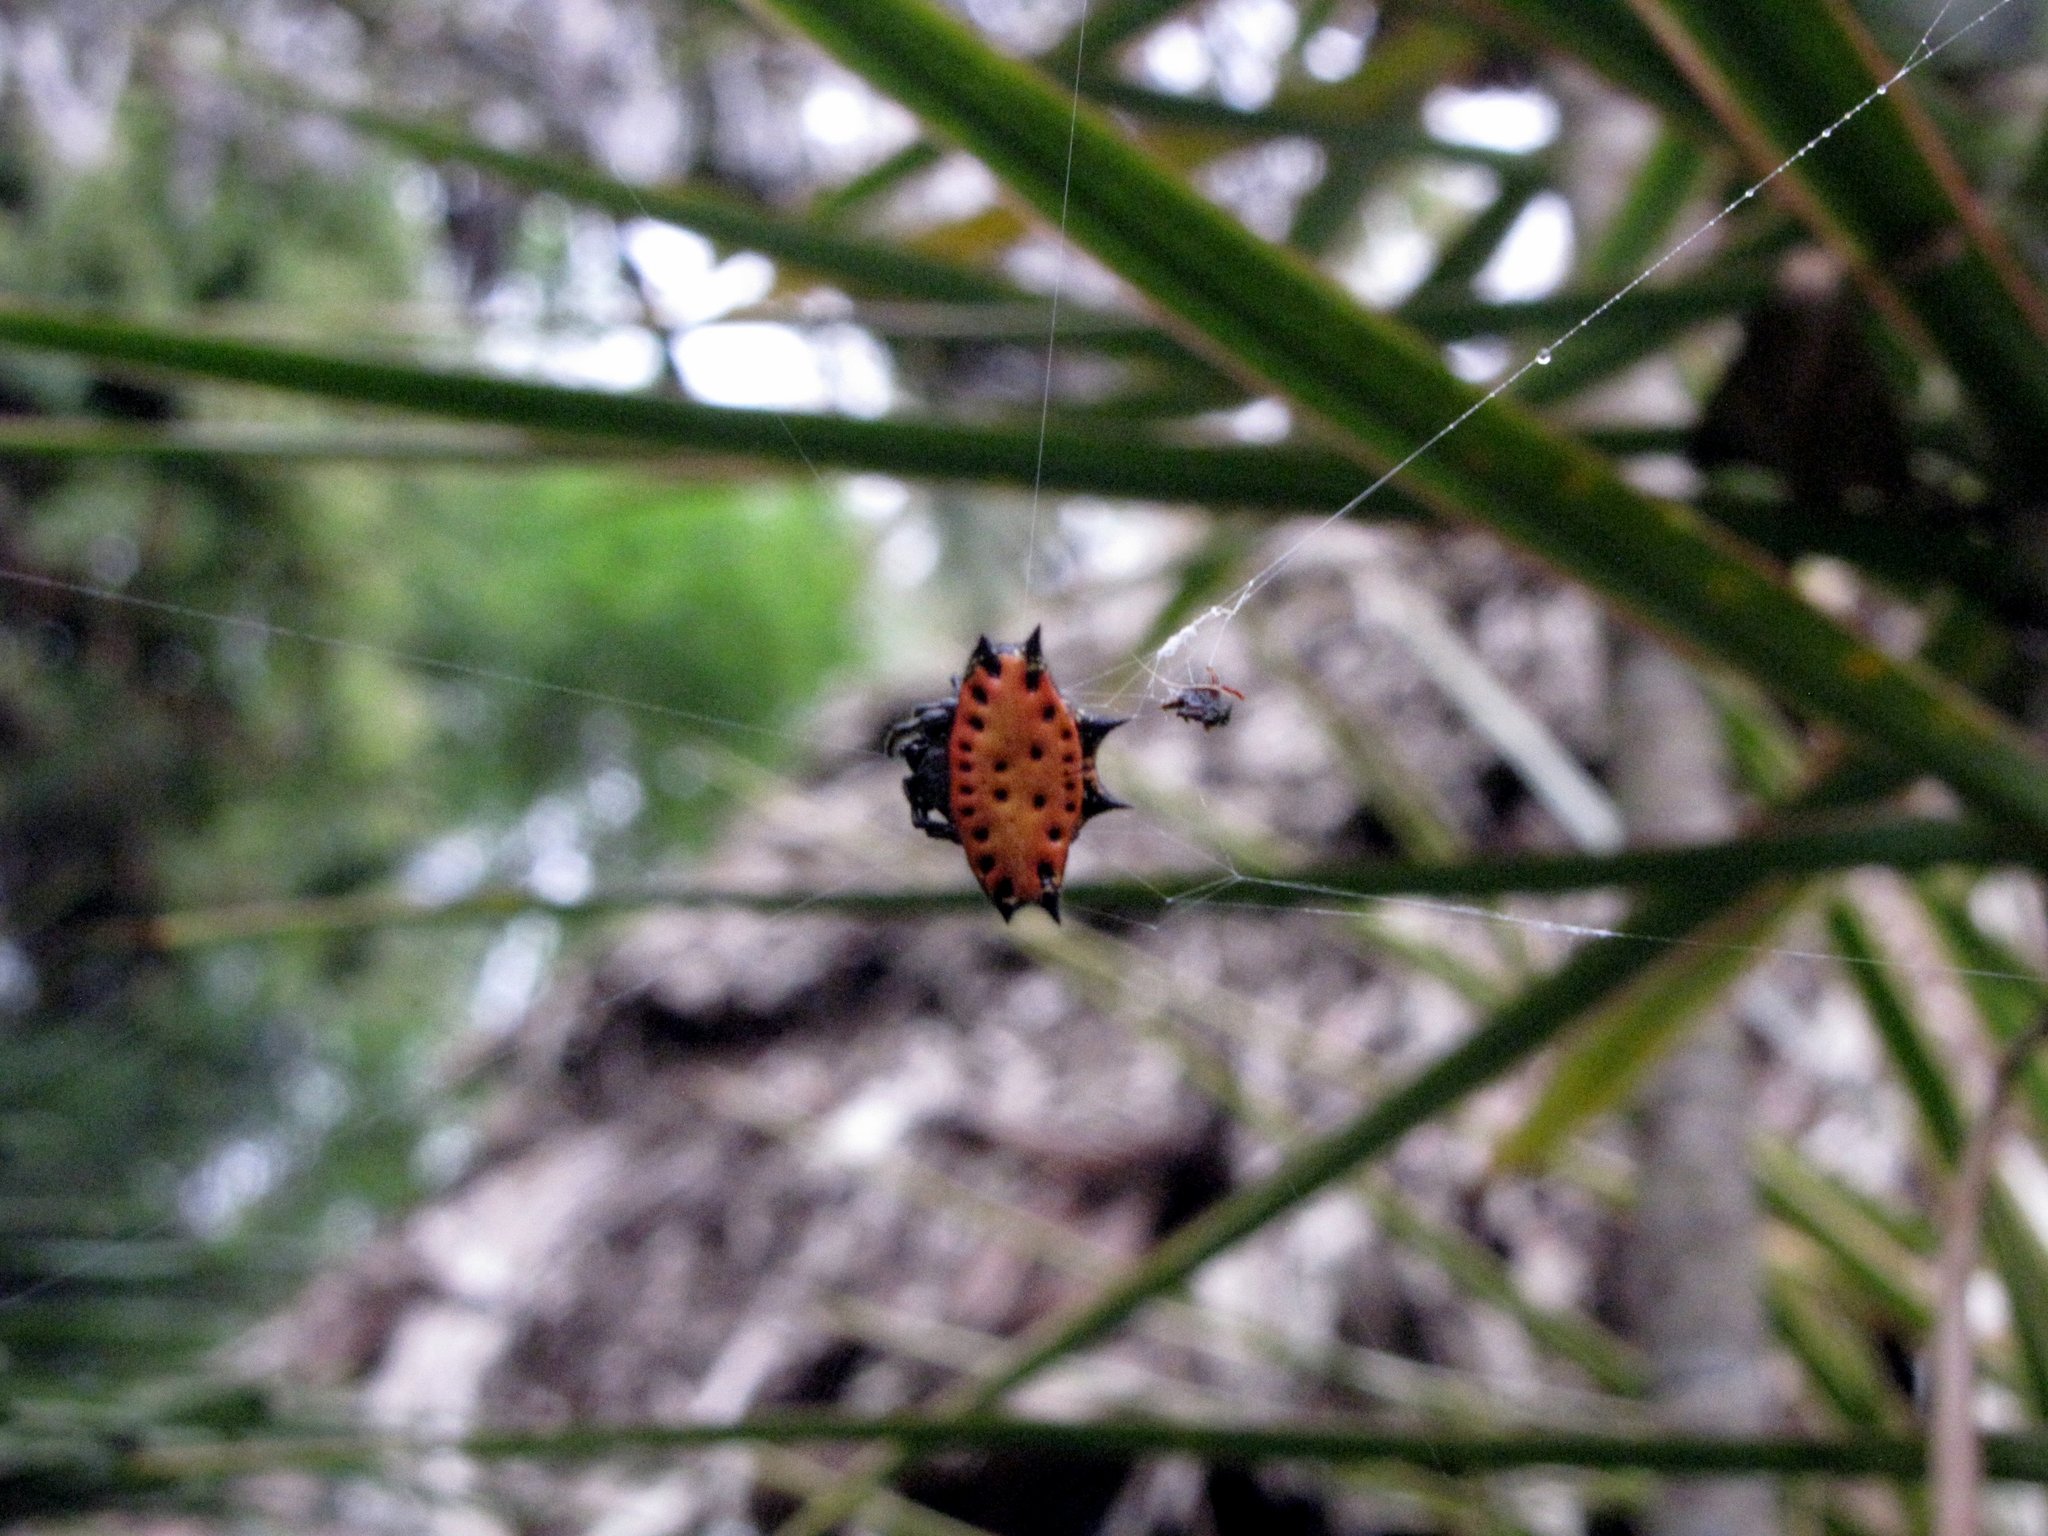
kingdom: Animalia
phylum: Arthropoda
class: Arachnida
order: Araneae
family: Araneidae
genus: Gasteracantha
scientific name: Gasteracantha cancriformis
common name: Orb weavers
